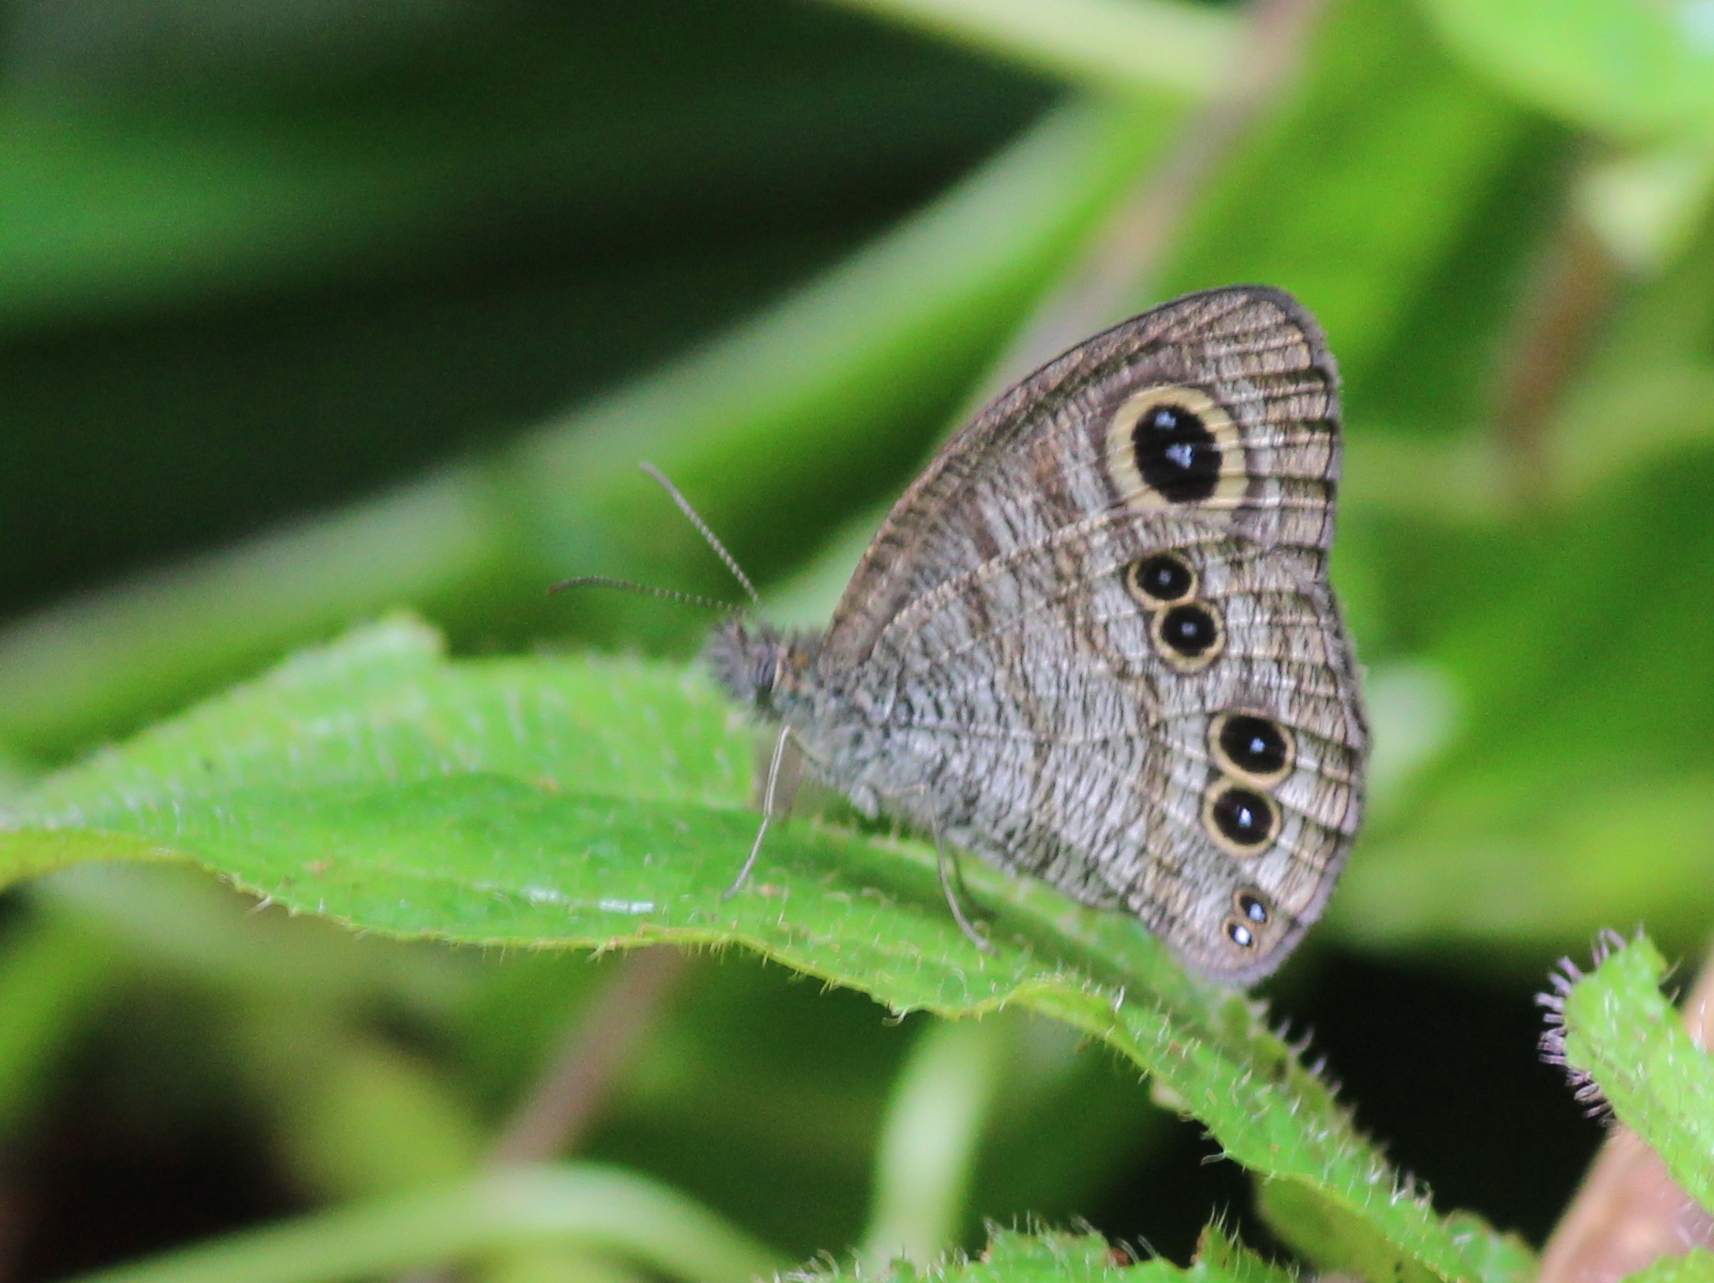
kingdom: Animalia
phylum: Arthropoda
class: Insecta
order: Lepidoptera
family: Nymphalidae
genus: Ypthima
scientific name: Ypthima baldus
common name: Common five-ring
